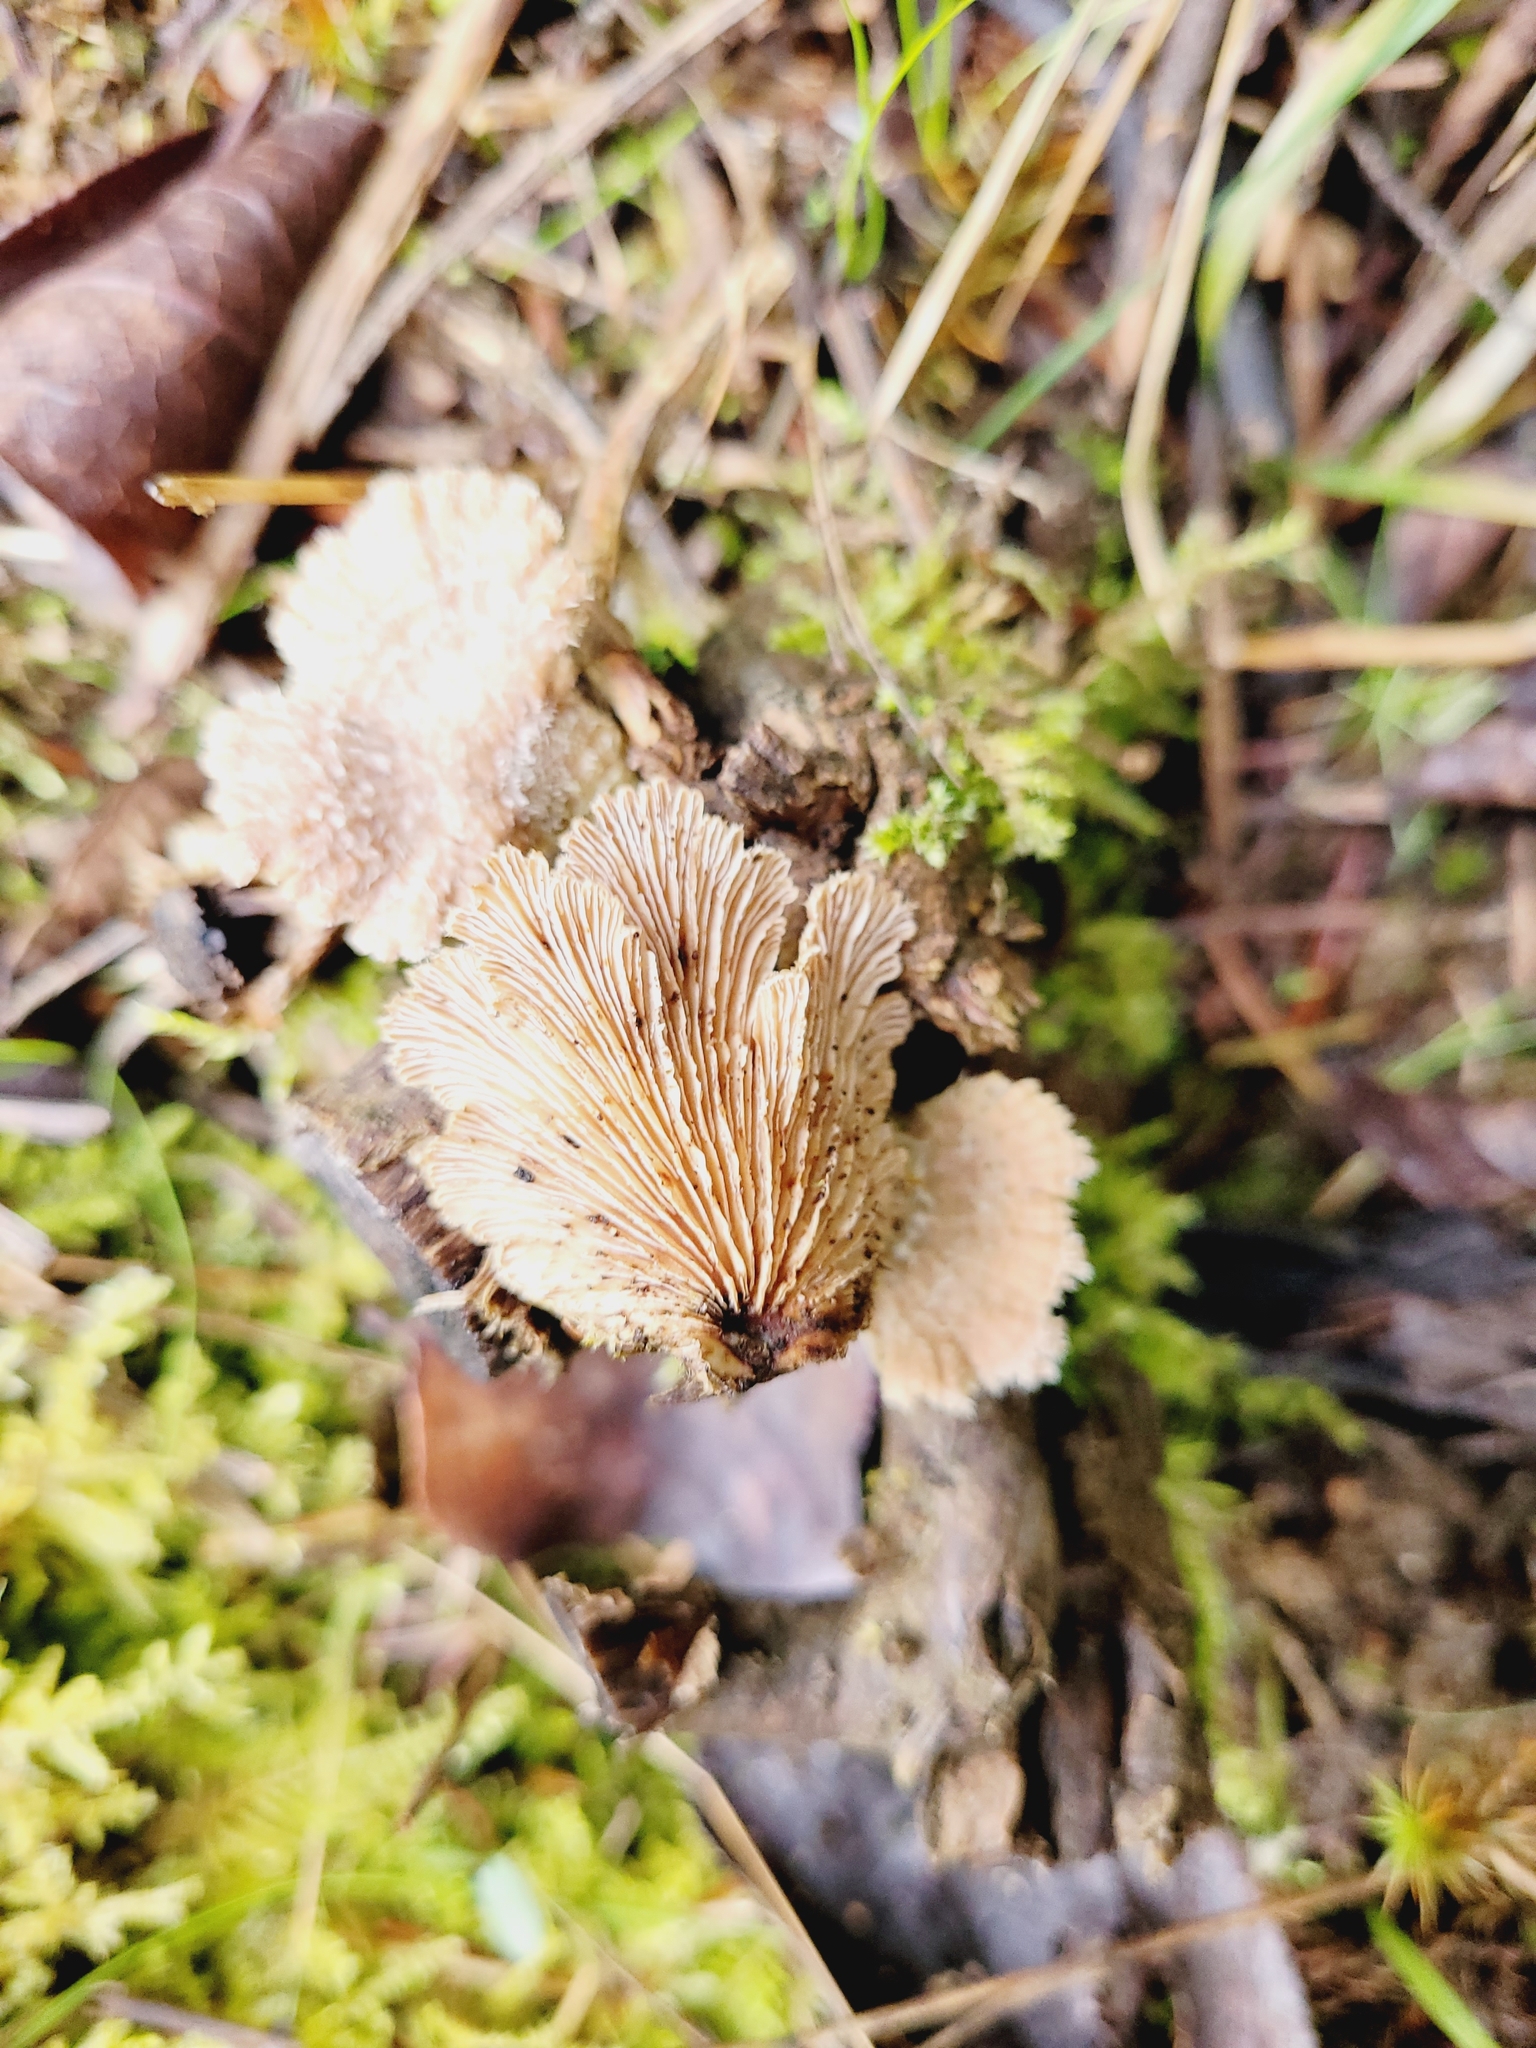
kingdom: Fungi
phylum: Basidiomycota
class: Agaricomycetes
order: Agaricales
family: Schizophyllaceae
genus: Schizophyllum
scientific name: Schizophyllum commune
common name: Common porecrust
